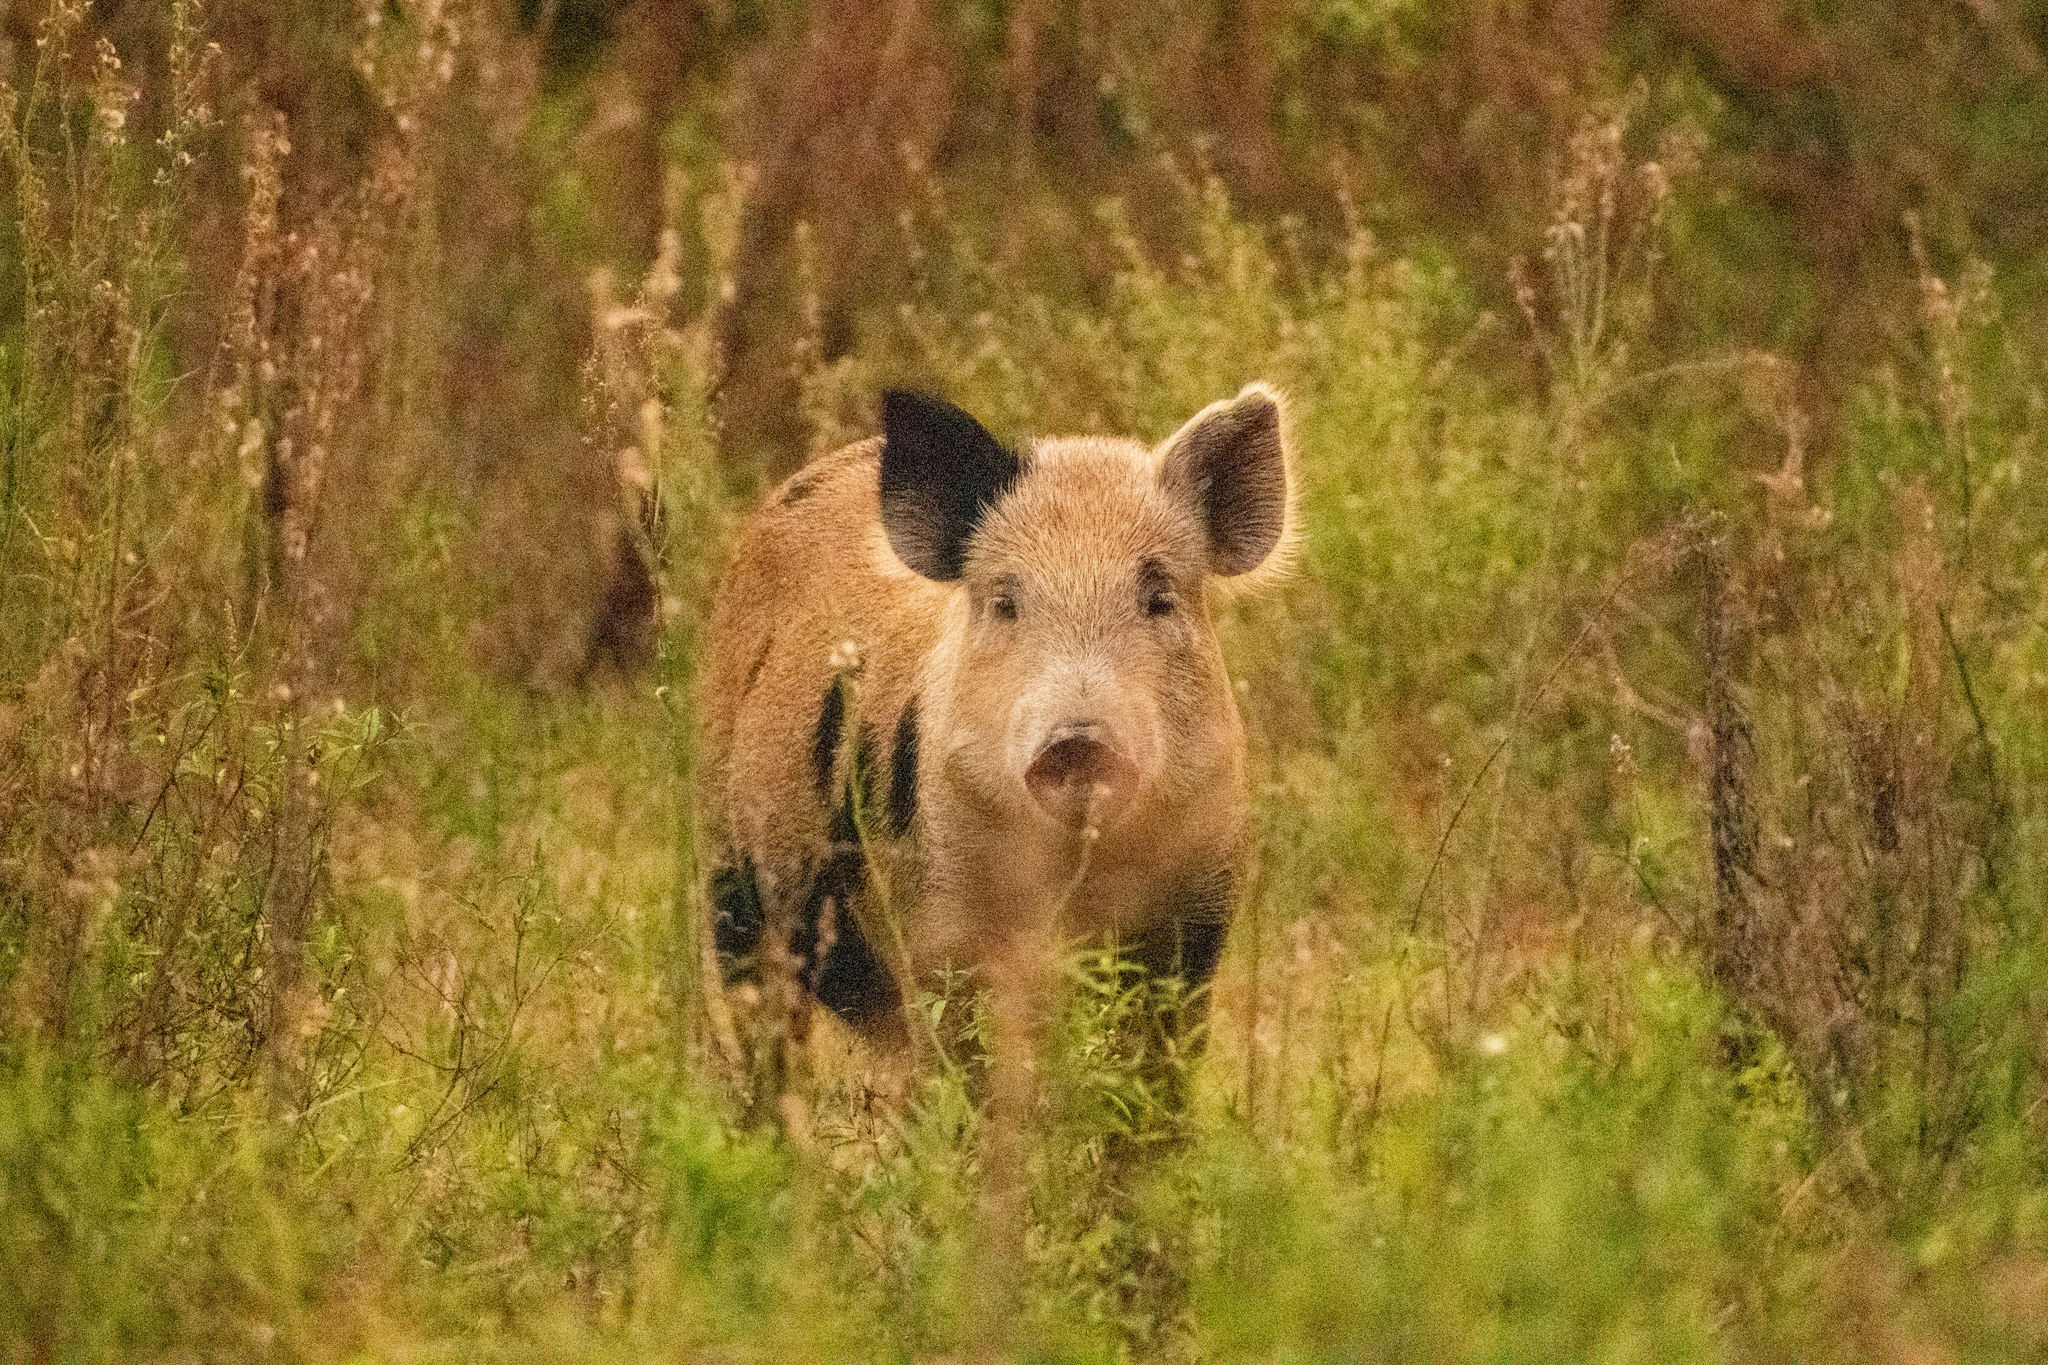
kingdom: Animalia
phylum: Chordata
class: Mammalia
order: Artiodactyla
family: Suidae
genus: Sus
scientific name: Sus scrofa
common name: Wild boar
